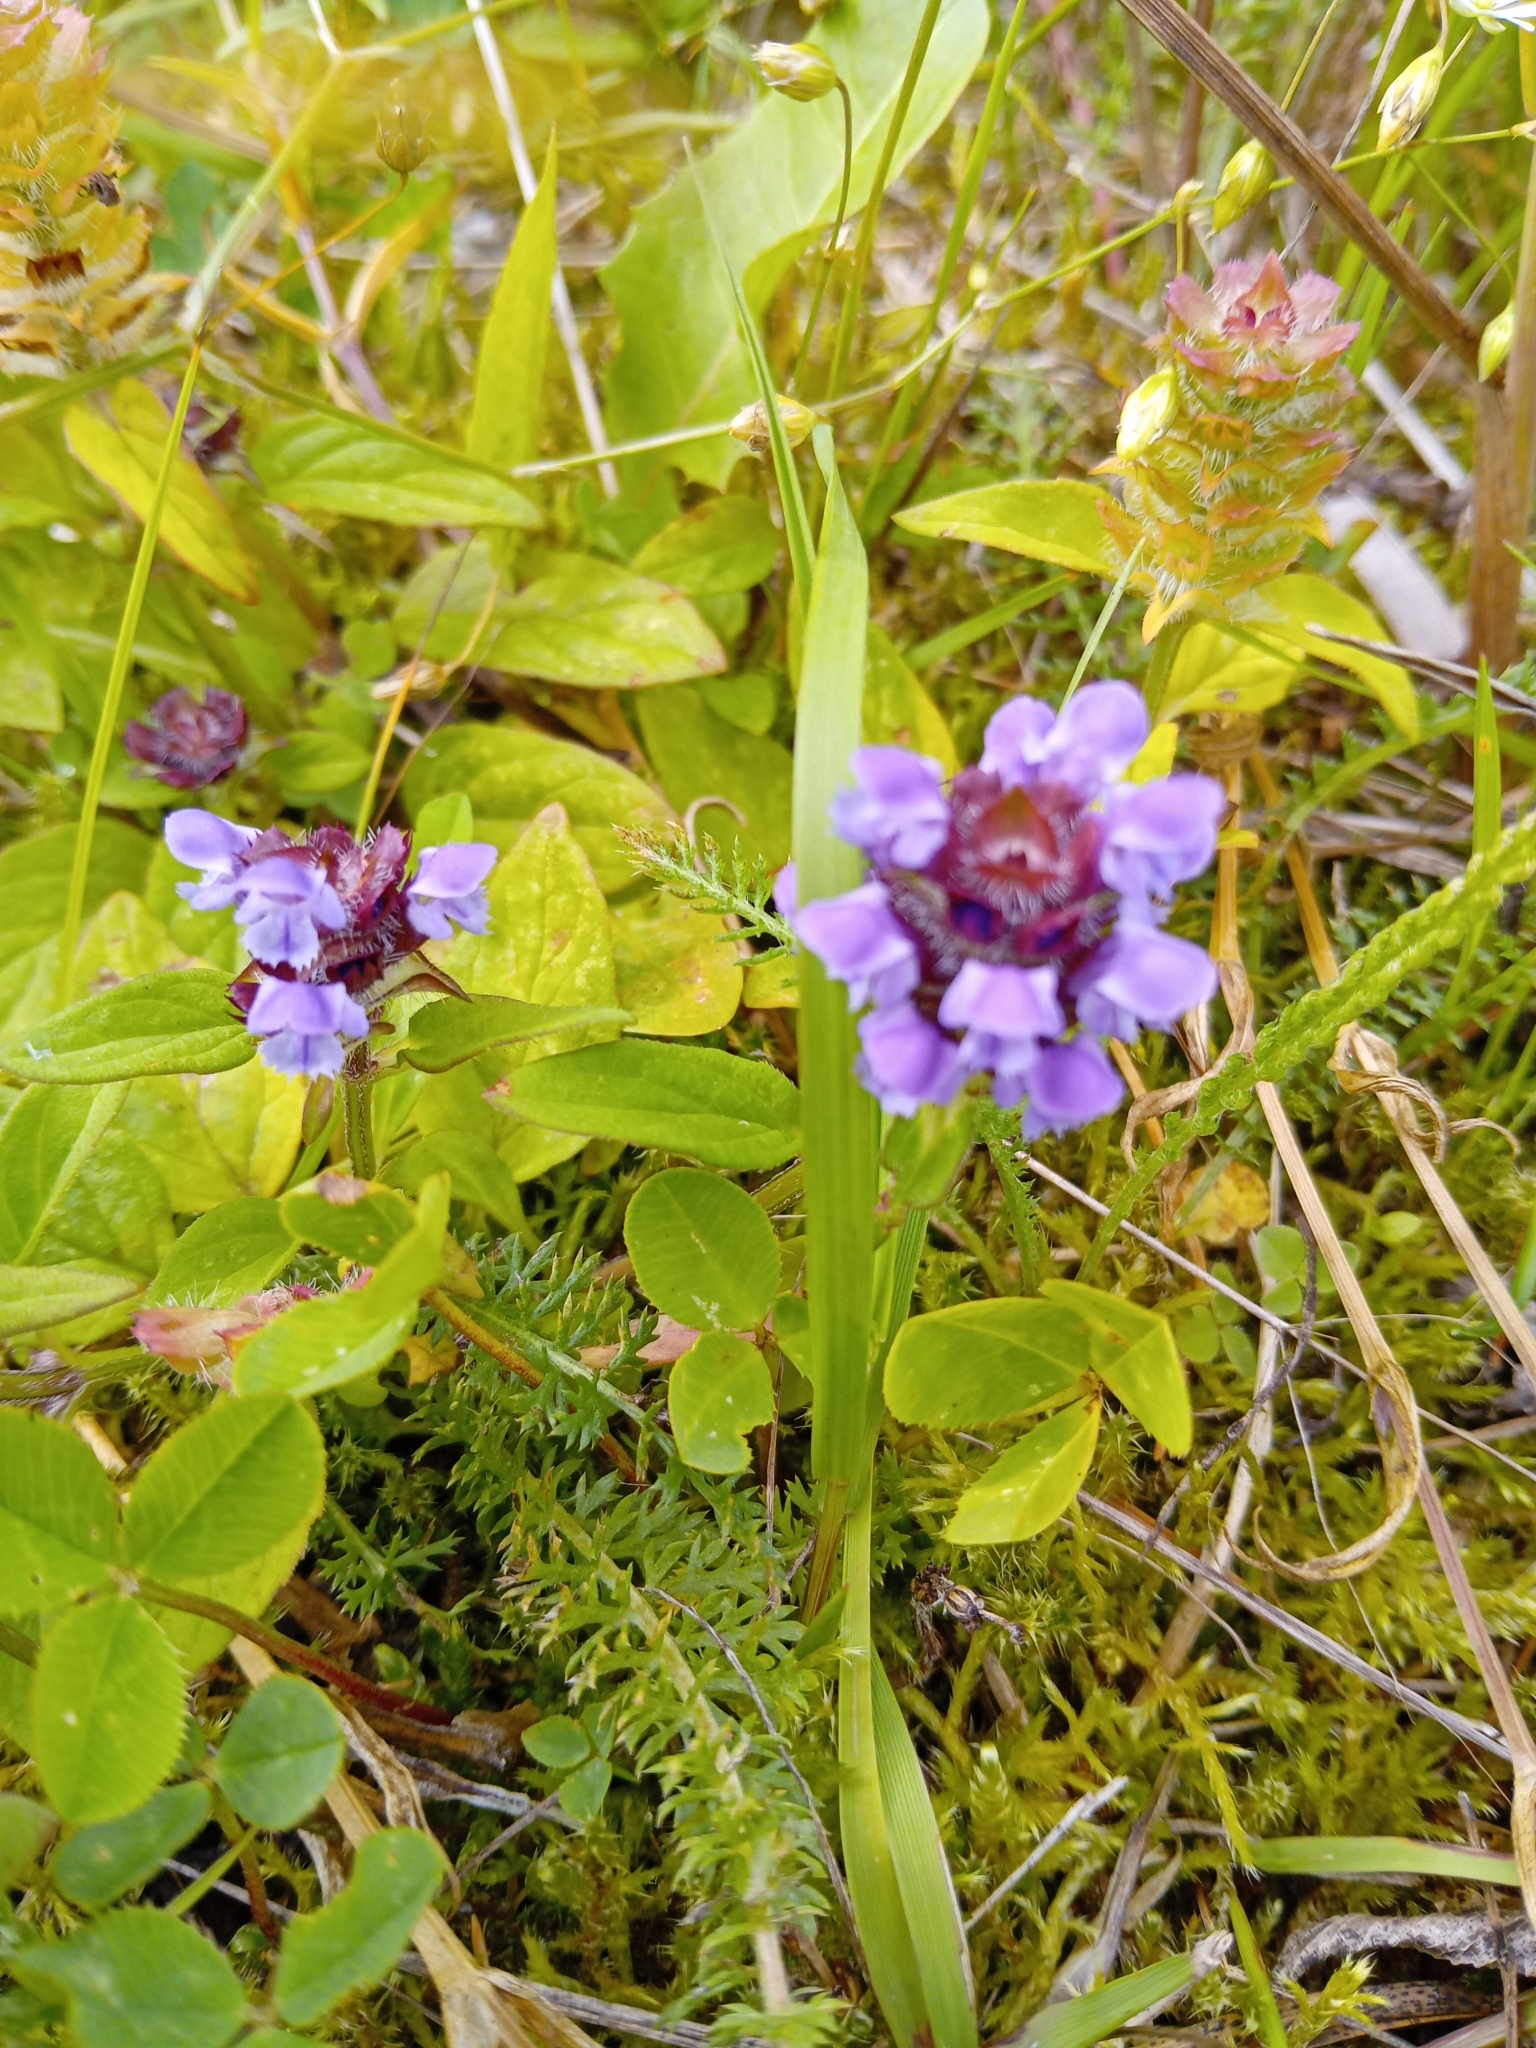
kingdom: Plantae
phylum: Tracheophyta
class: Magnoliopsida
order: Lamiales
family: Lamiaceae
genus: Prunella
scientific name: Prunella vulgaris
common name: Heal-all
